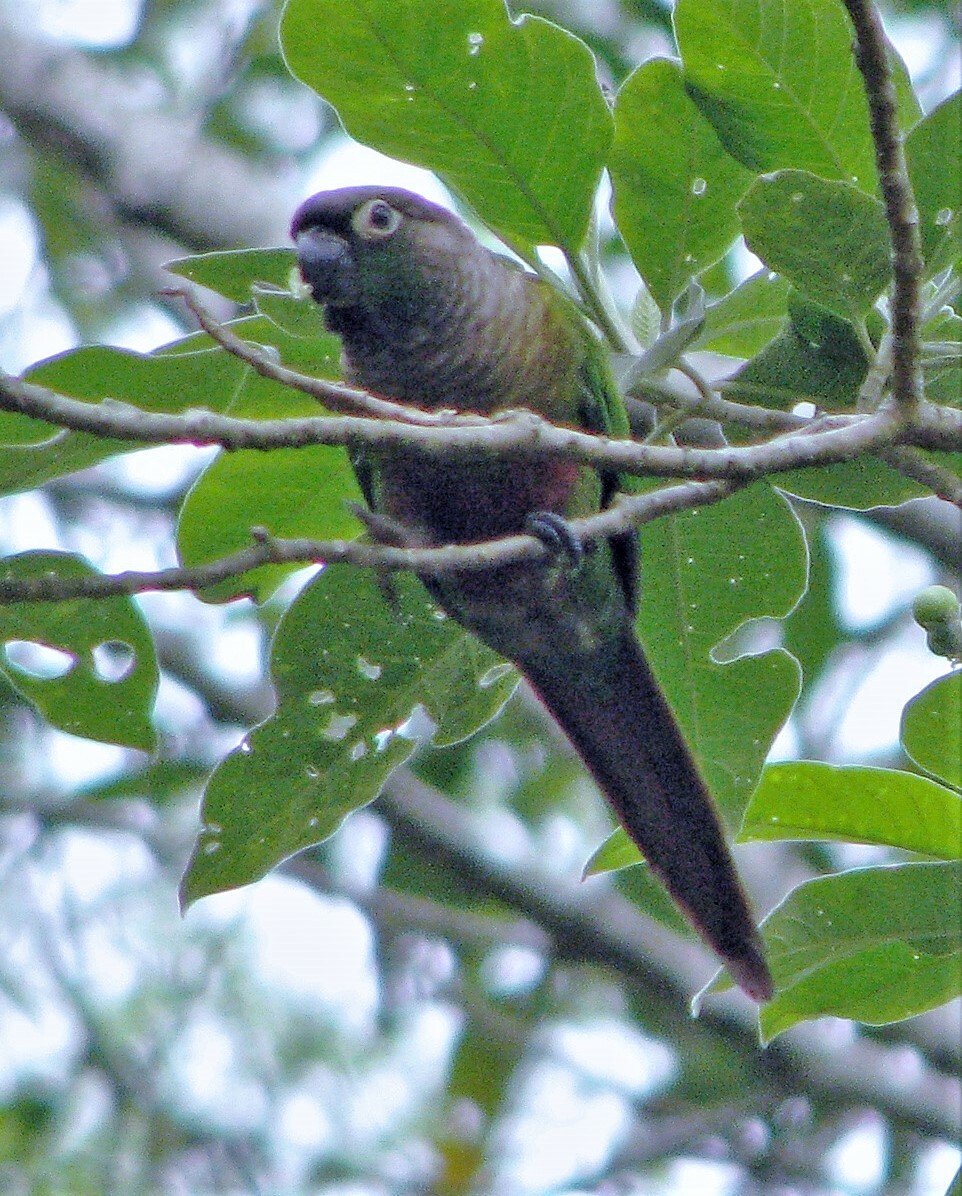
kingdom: Animalia
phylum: Chordata
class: Aves
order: Psittaciformes
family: Psittacidae
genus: Pyrrhura
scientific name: Pyrrhura molinae
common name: Green-cheeked parakeet
